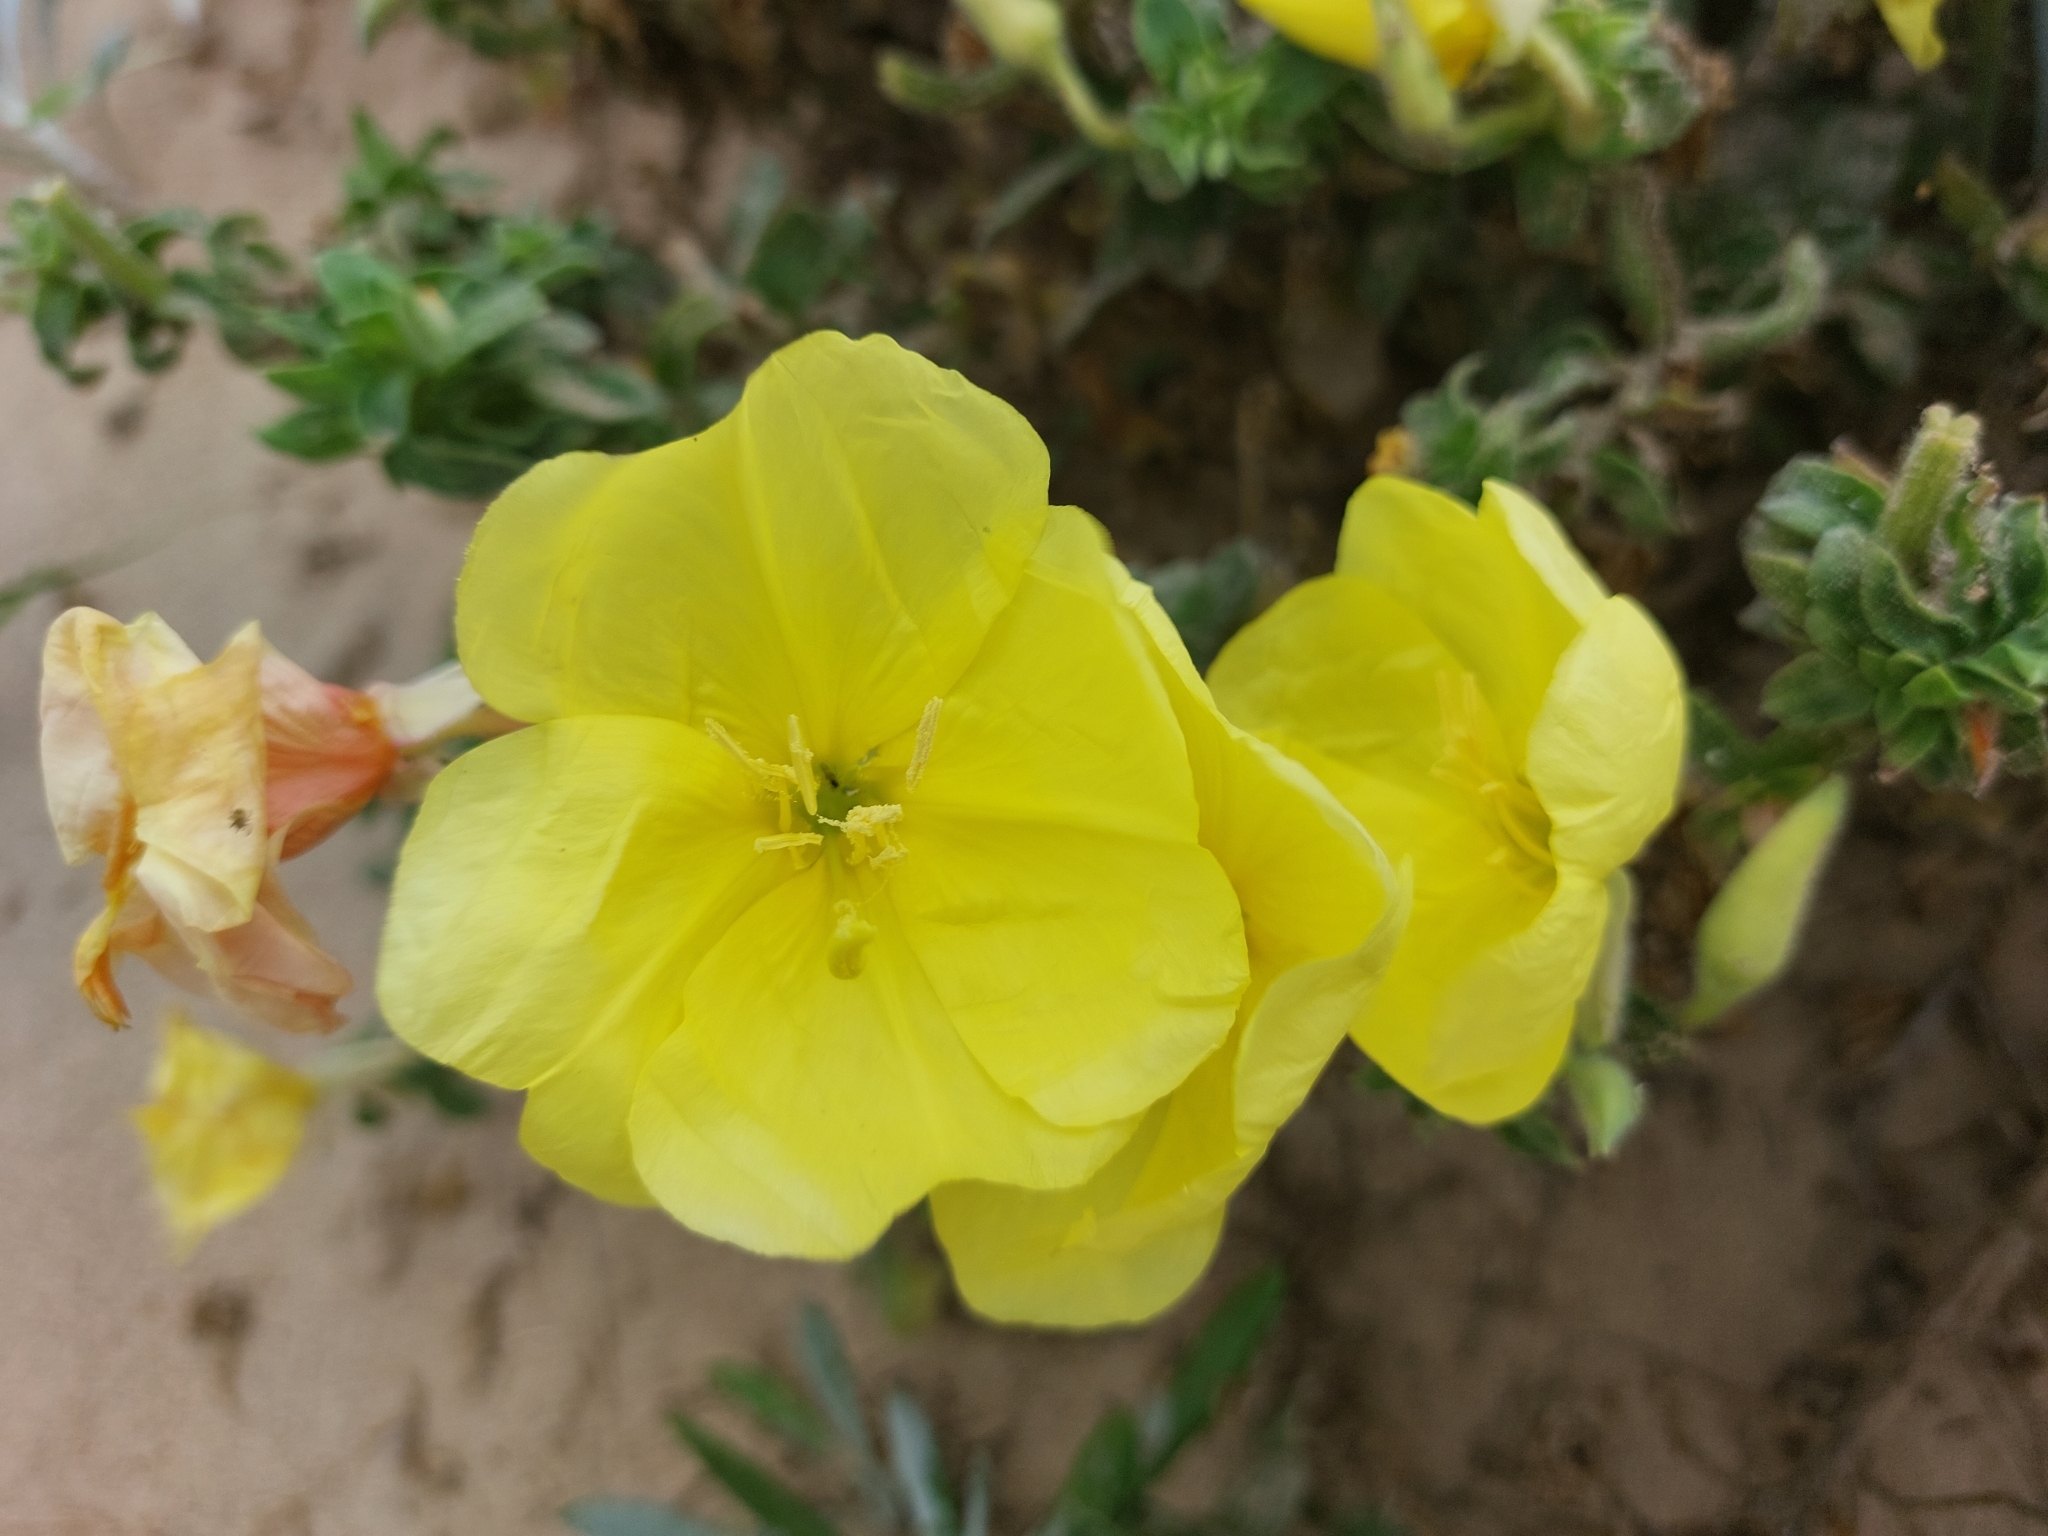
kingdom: Plantae
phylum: Tracheophyta
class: Magnoliopsida
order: Myrtales
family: Onagraceae
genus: Oenothera
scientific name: Oenothera drummondii
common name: Beach evening-primrose
